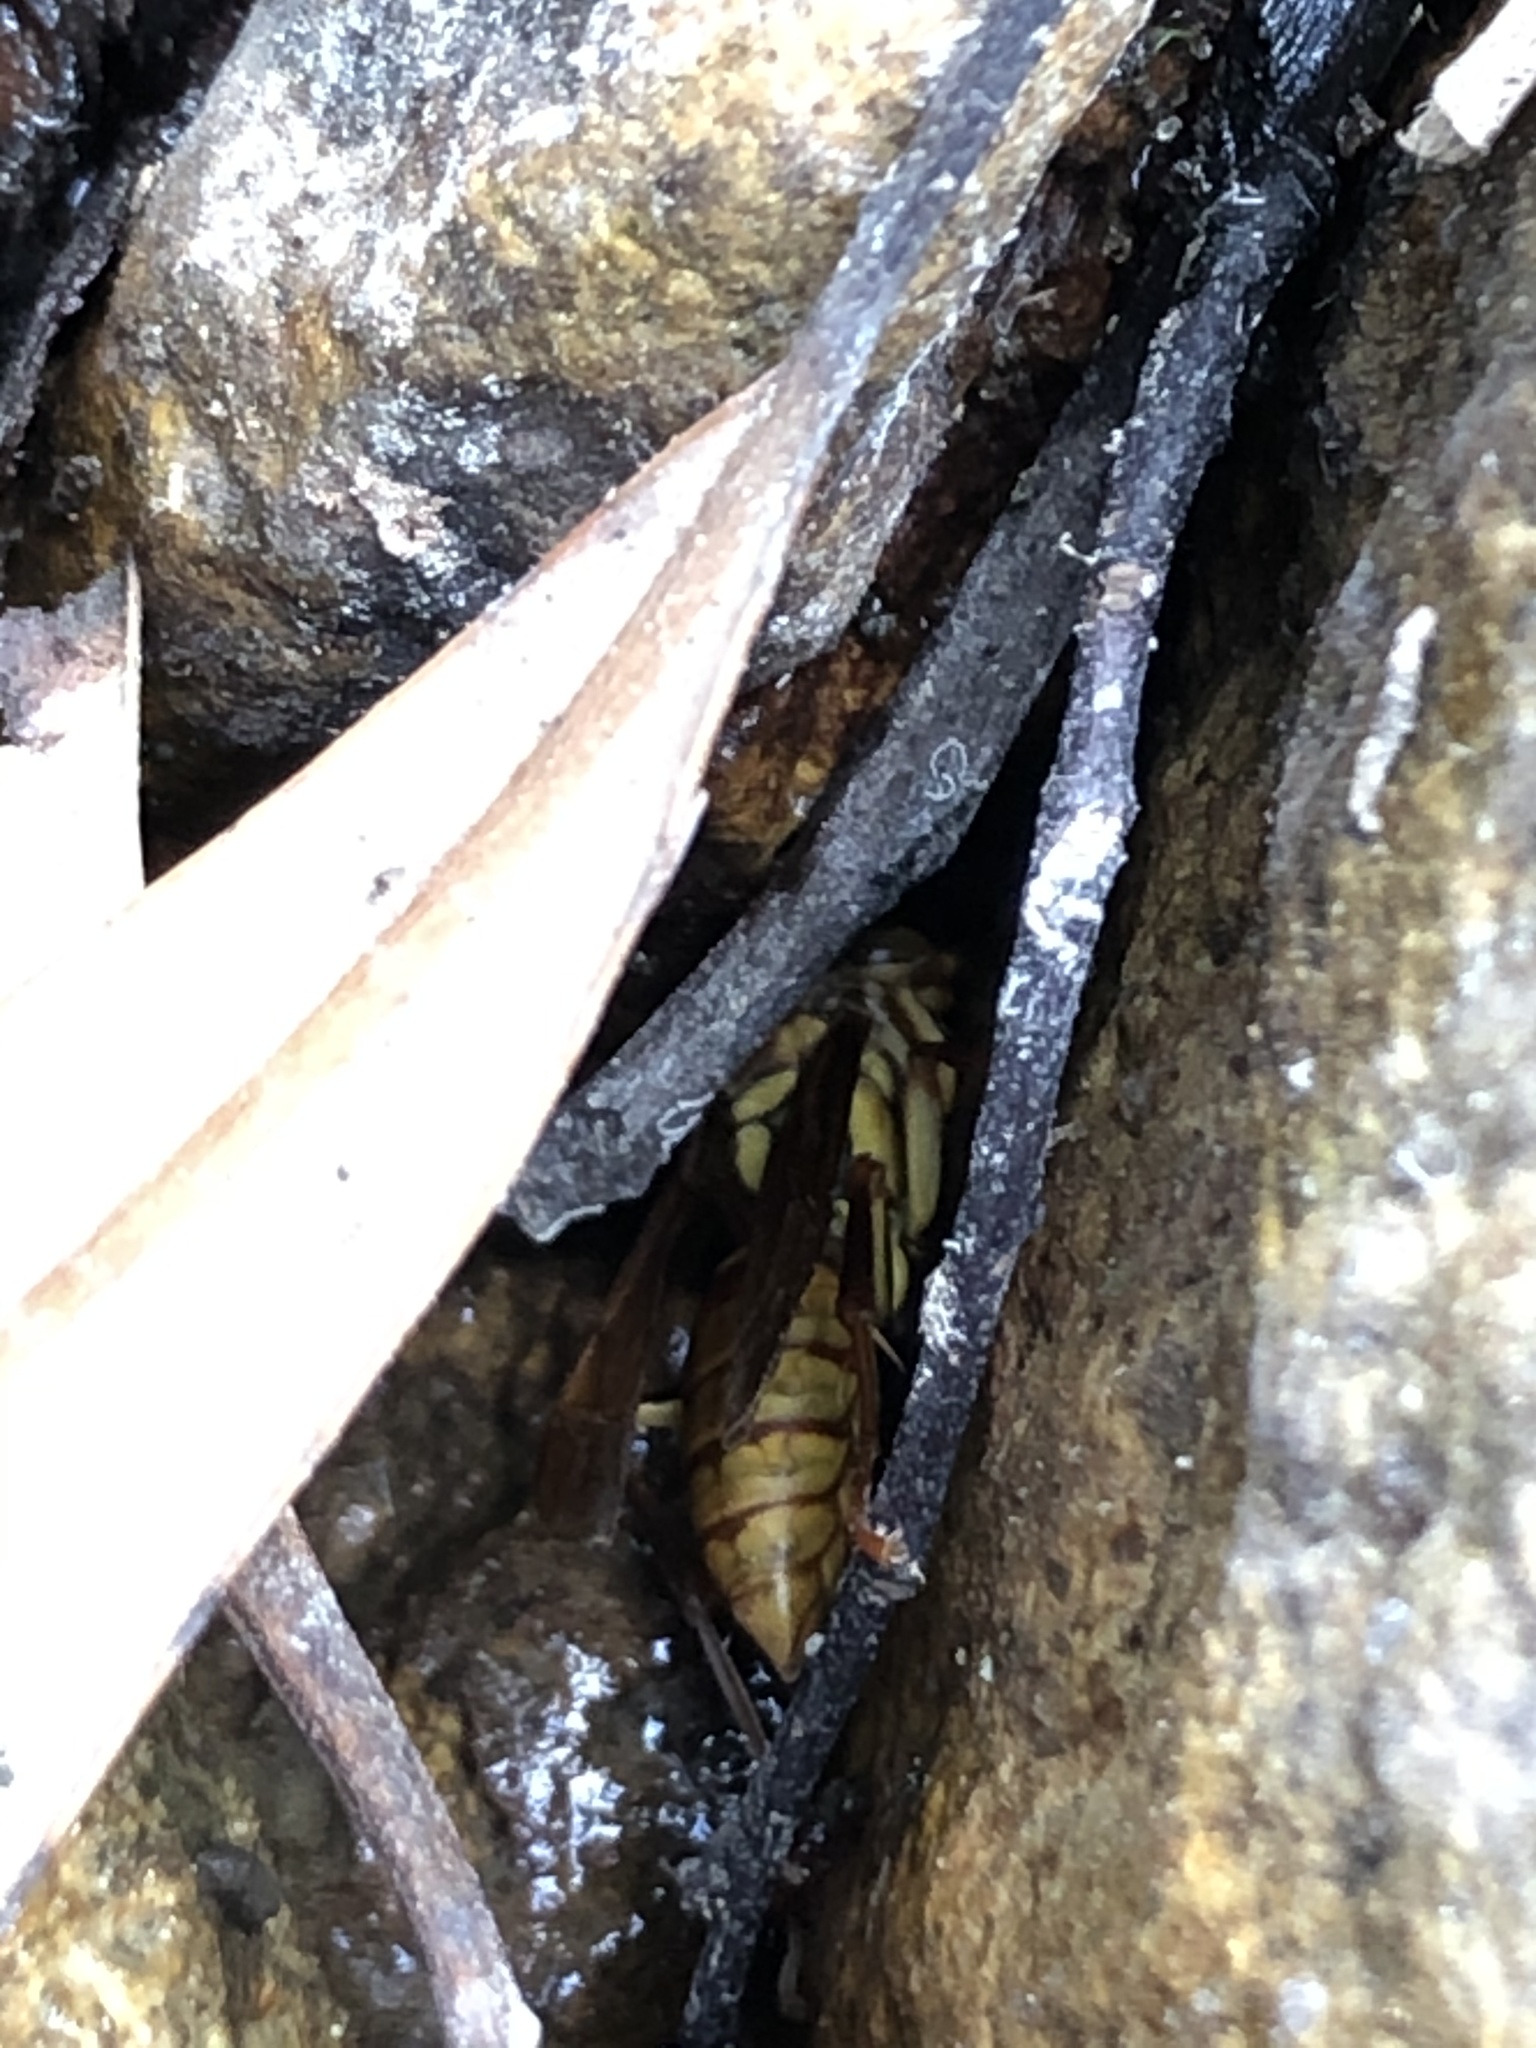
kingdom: Animalia
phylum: Arthropoda
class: Insecta
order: Hymenoptera
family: Eumenidae
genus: Polistes
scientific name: Polistes japonicus
